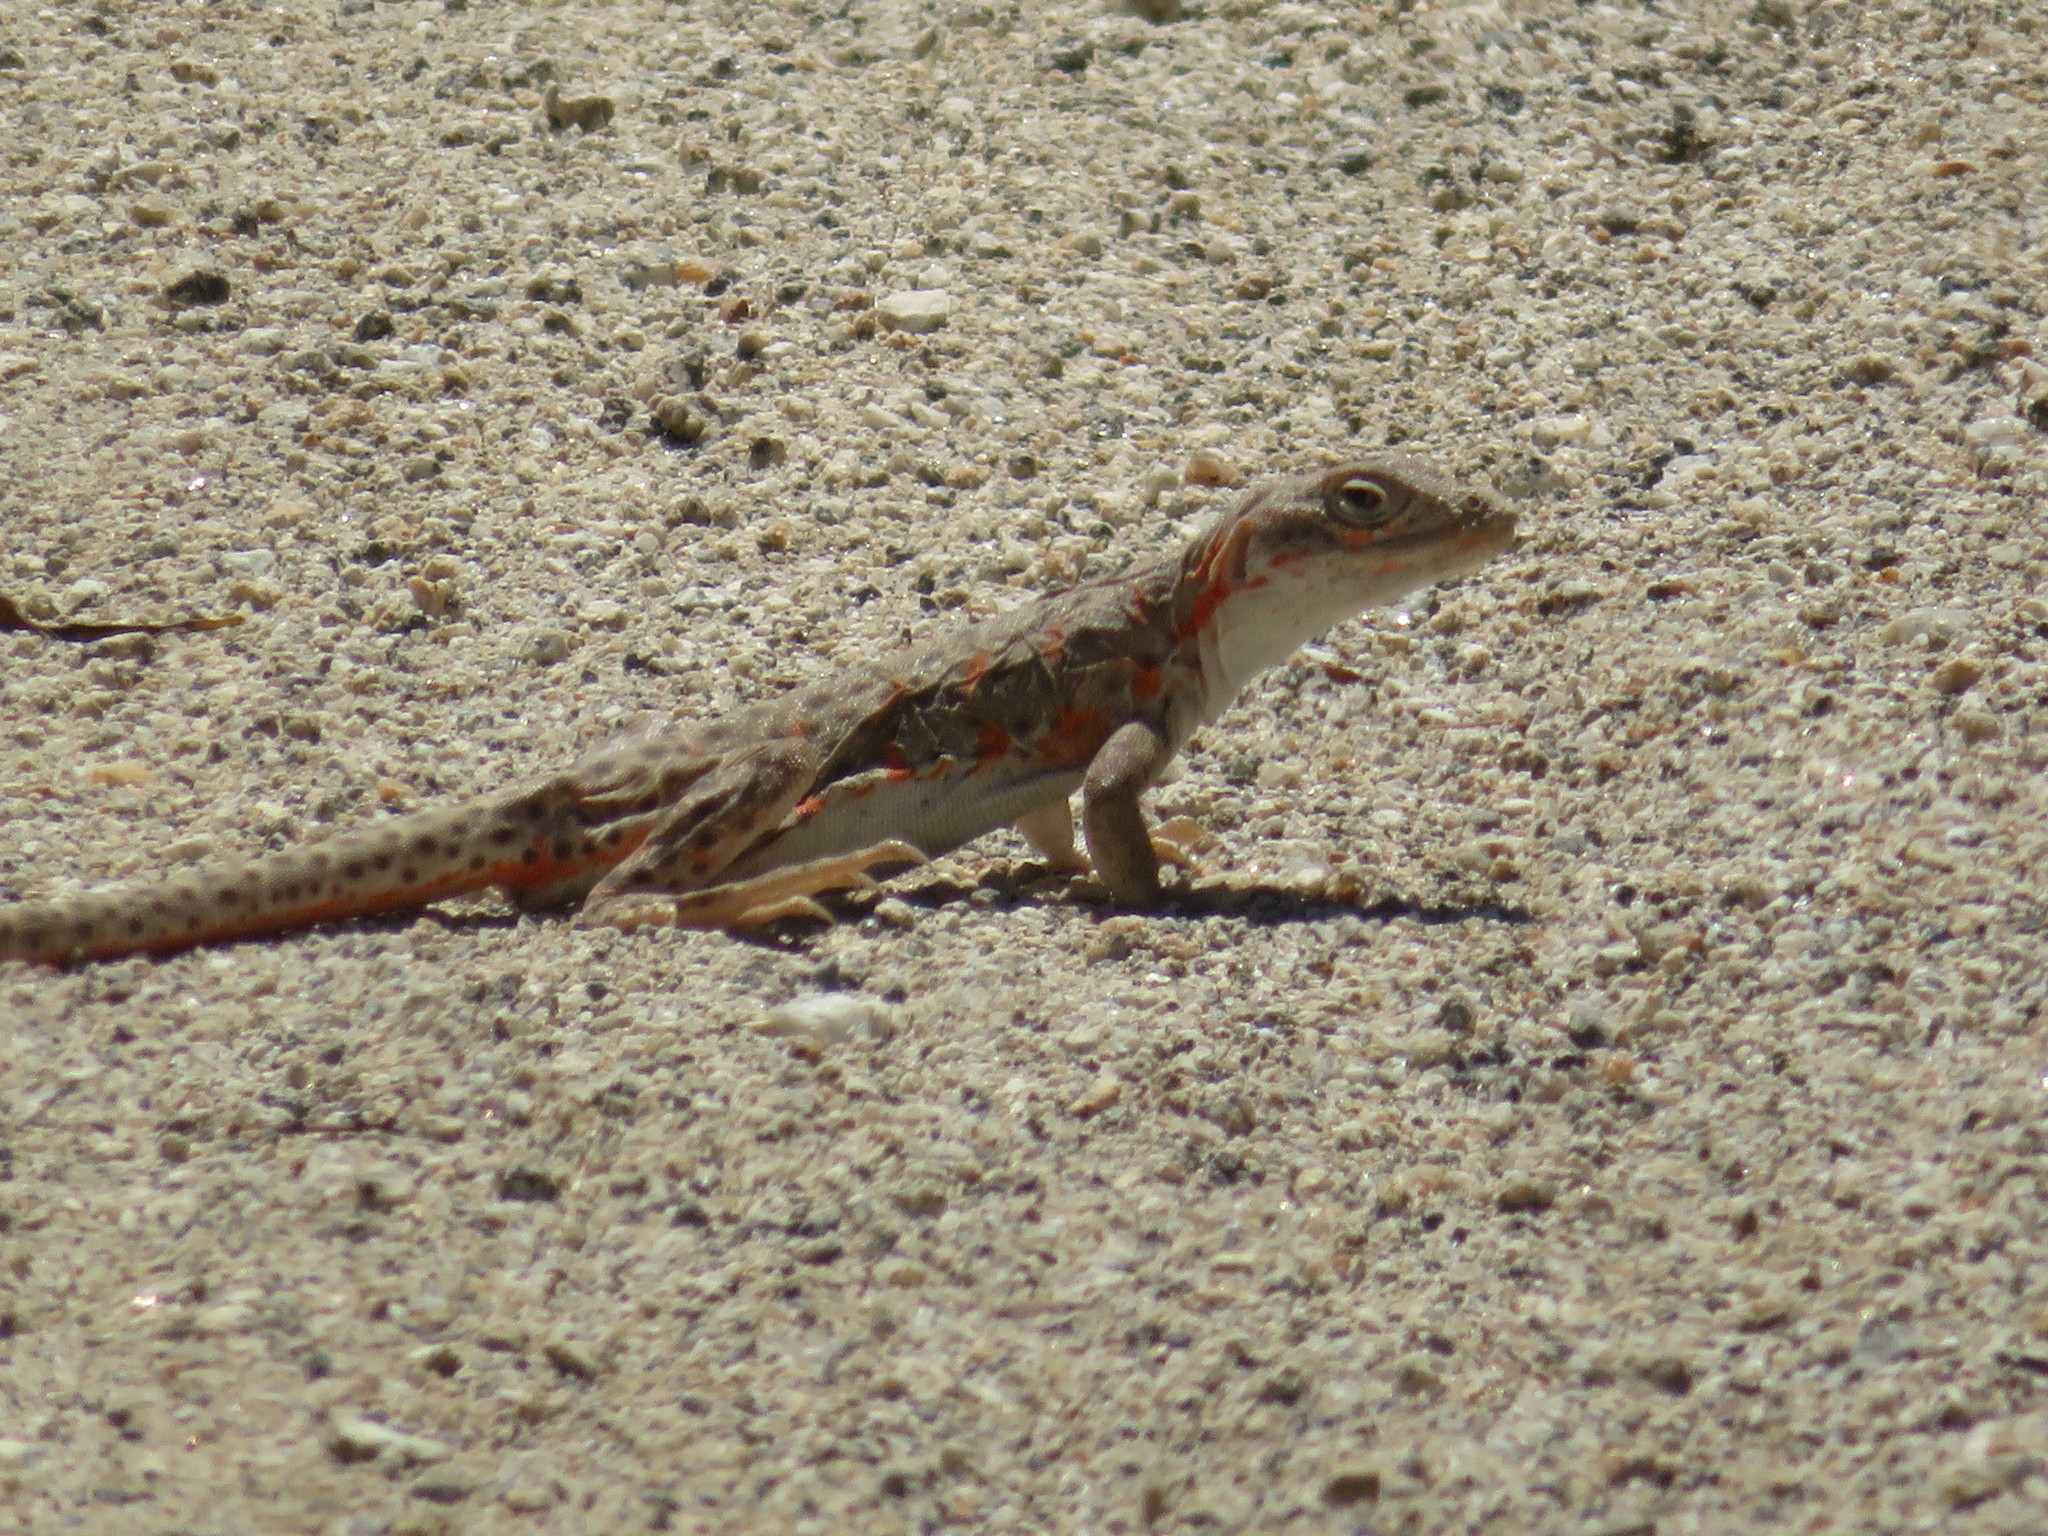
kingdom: Animalia
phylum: Chordata
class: Squamata
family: Crotaphytidae
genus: Gambelia
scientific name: Gambelia wislizenii
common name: Longnose leopard lizard
